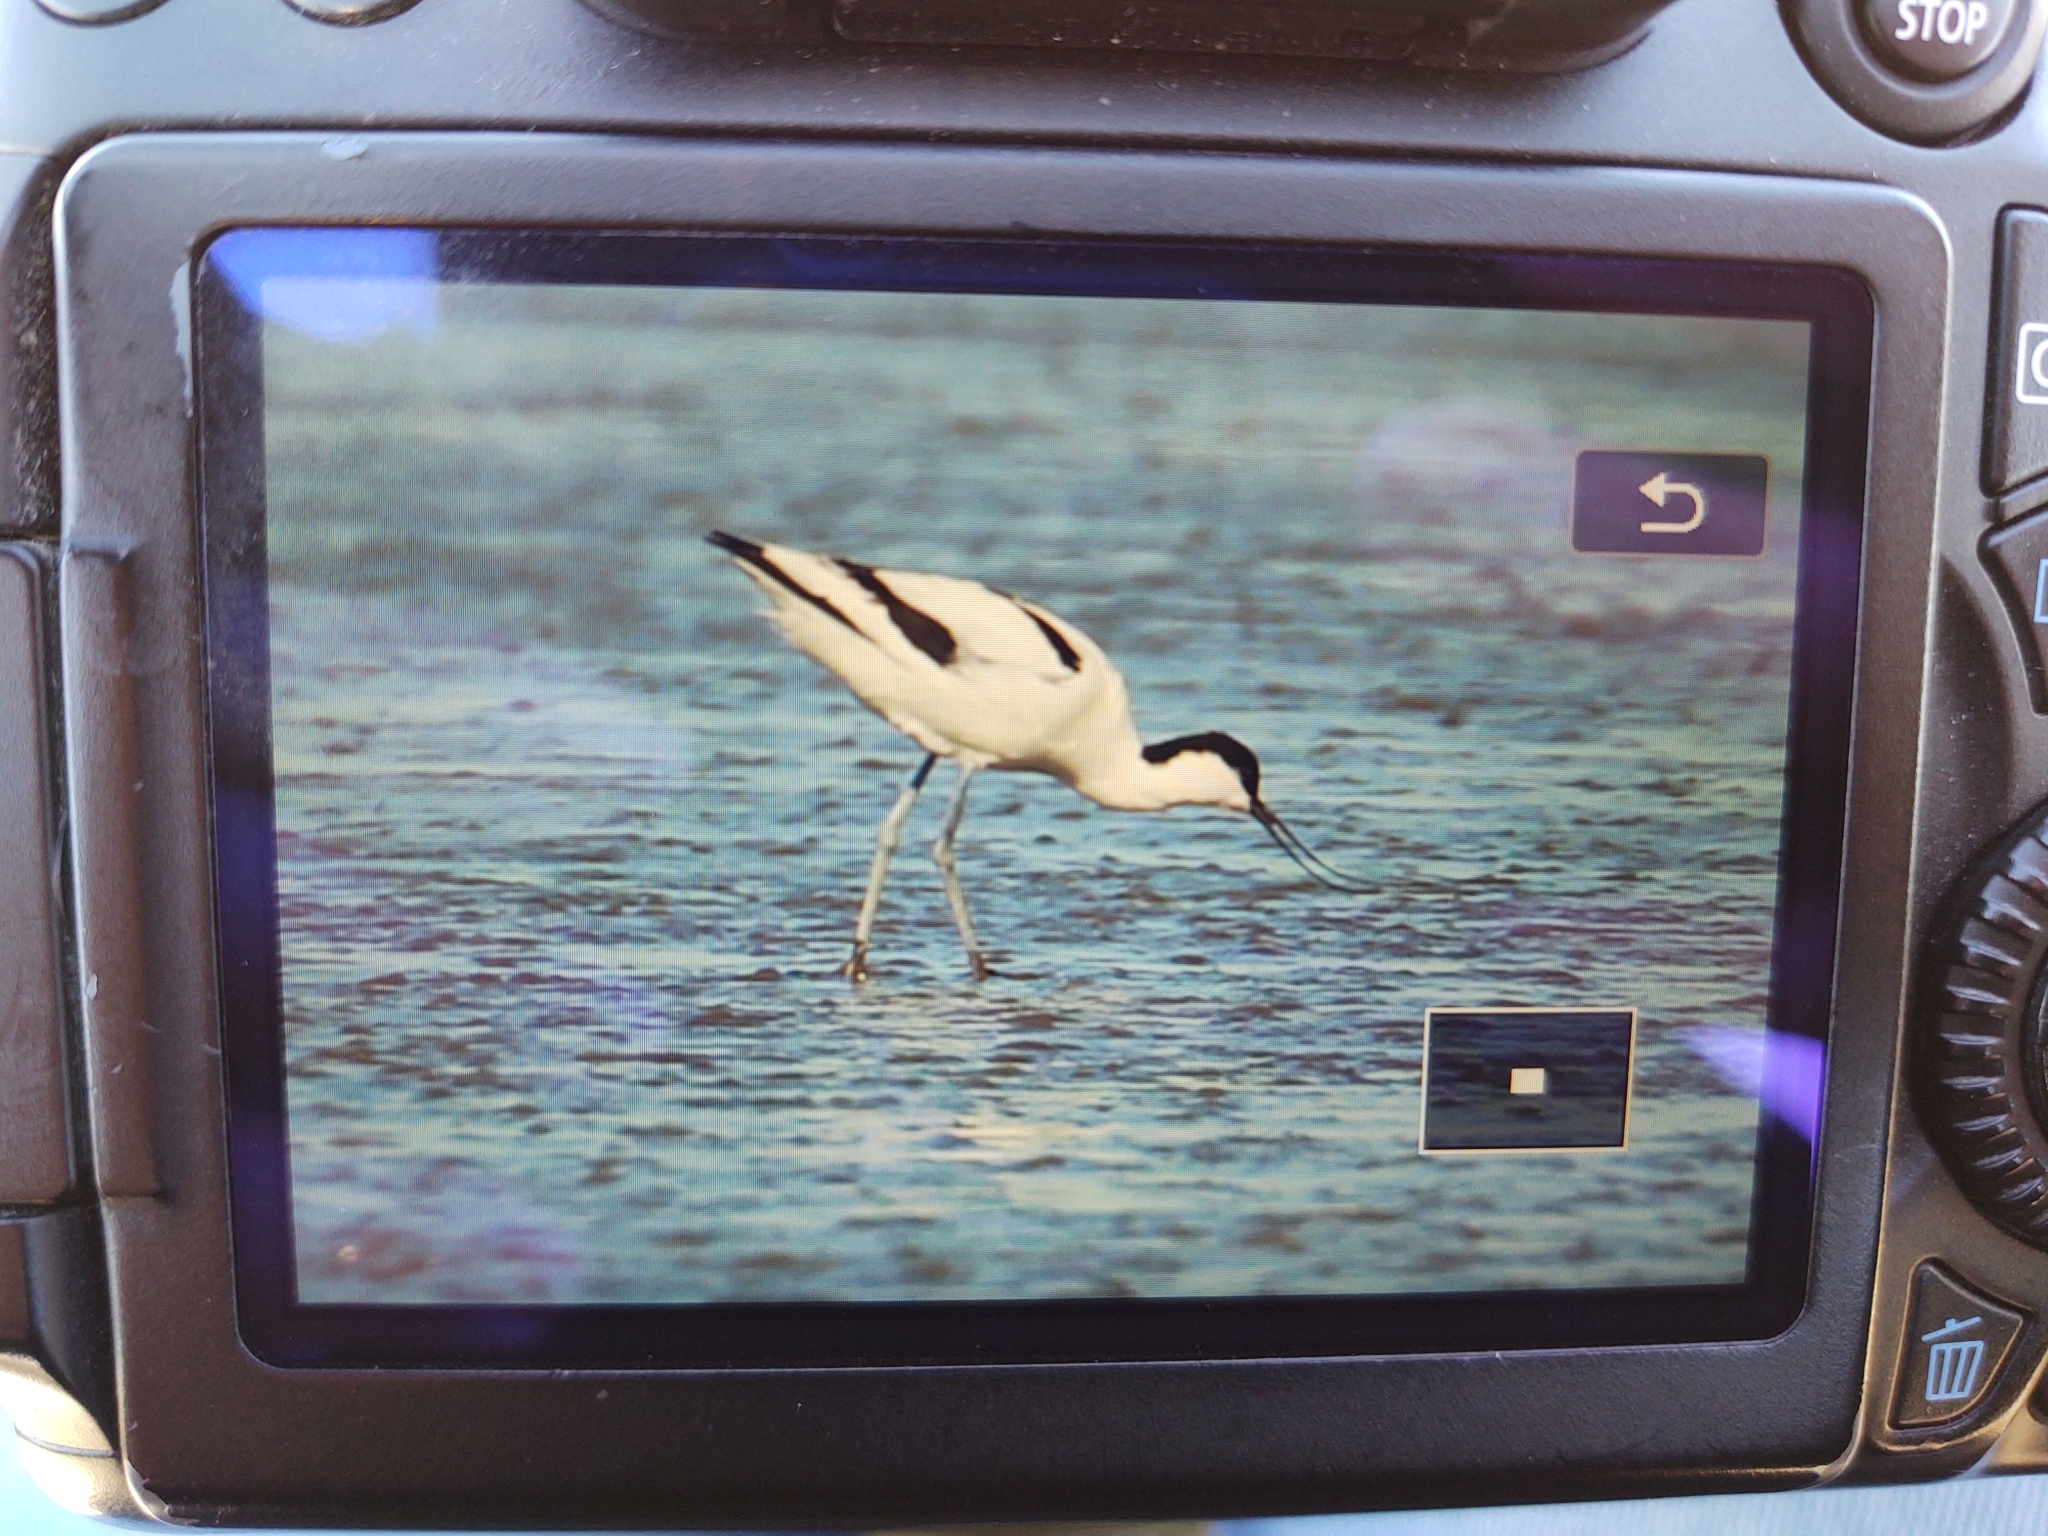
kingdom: Animalia
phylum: Chordata
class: Aves
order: Charadriiformes
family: Recurvirostridae
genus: Recurvirostra
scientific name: Recurvirostra avosetta
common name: Pied avocet
